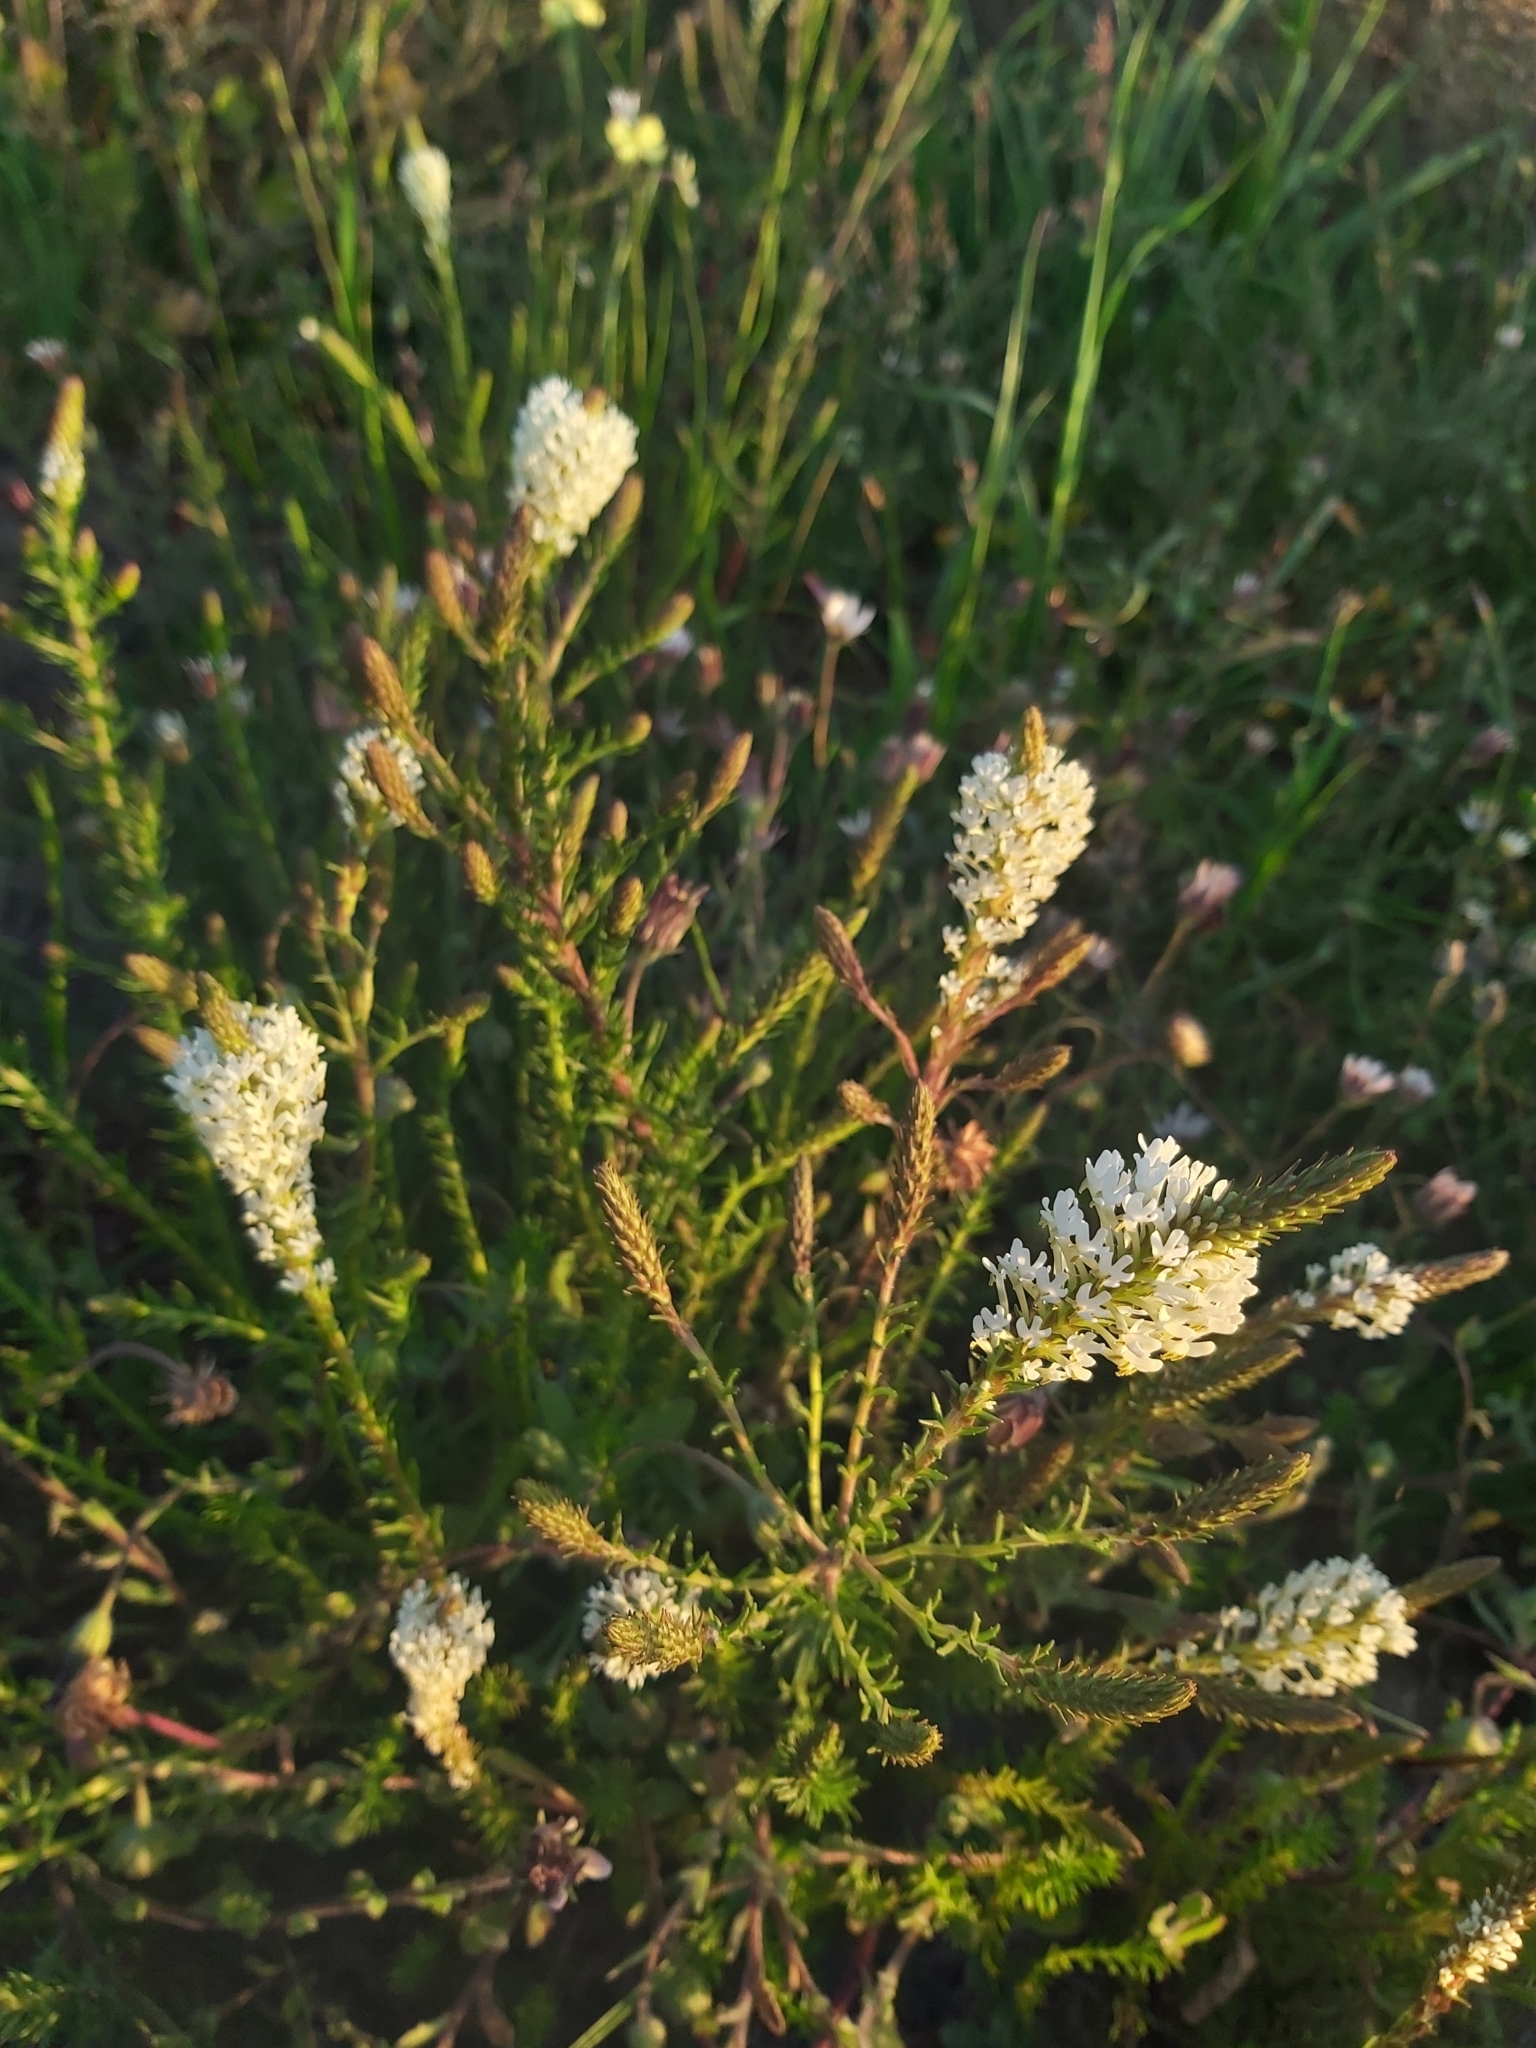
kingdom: Plantae
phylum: Tracheophyta
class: Magnoliopsida
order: Lamiales
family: Scrophulariaceae
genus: Dischisma
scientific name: Dischisma ciliatum
